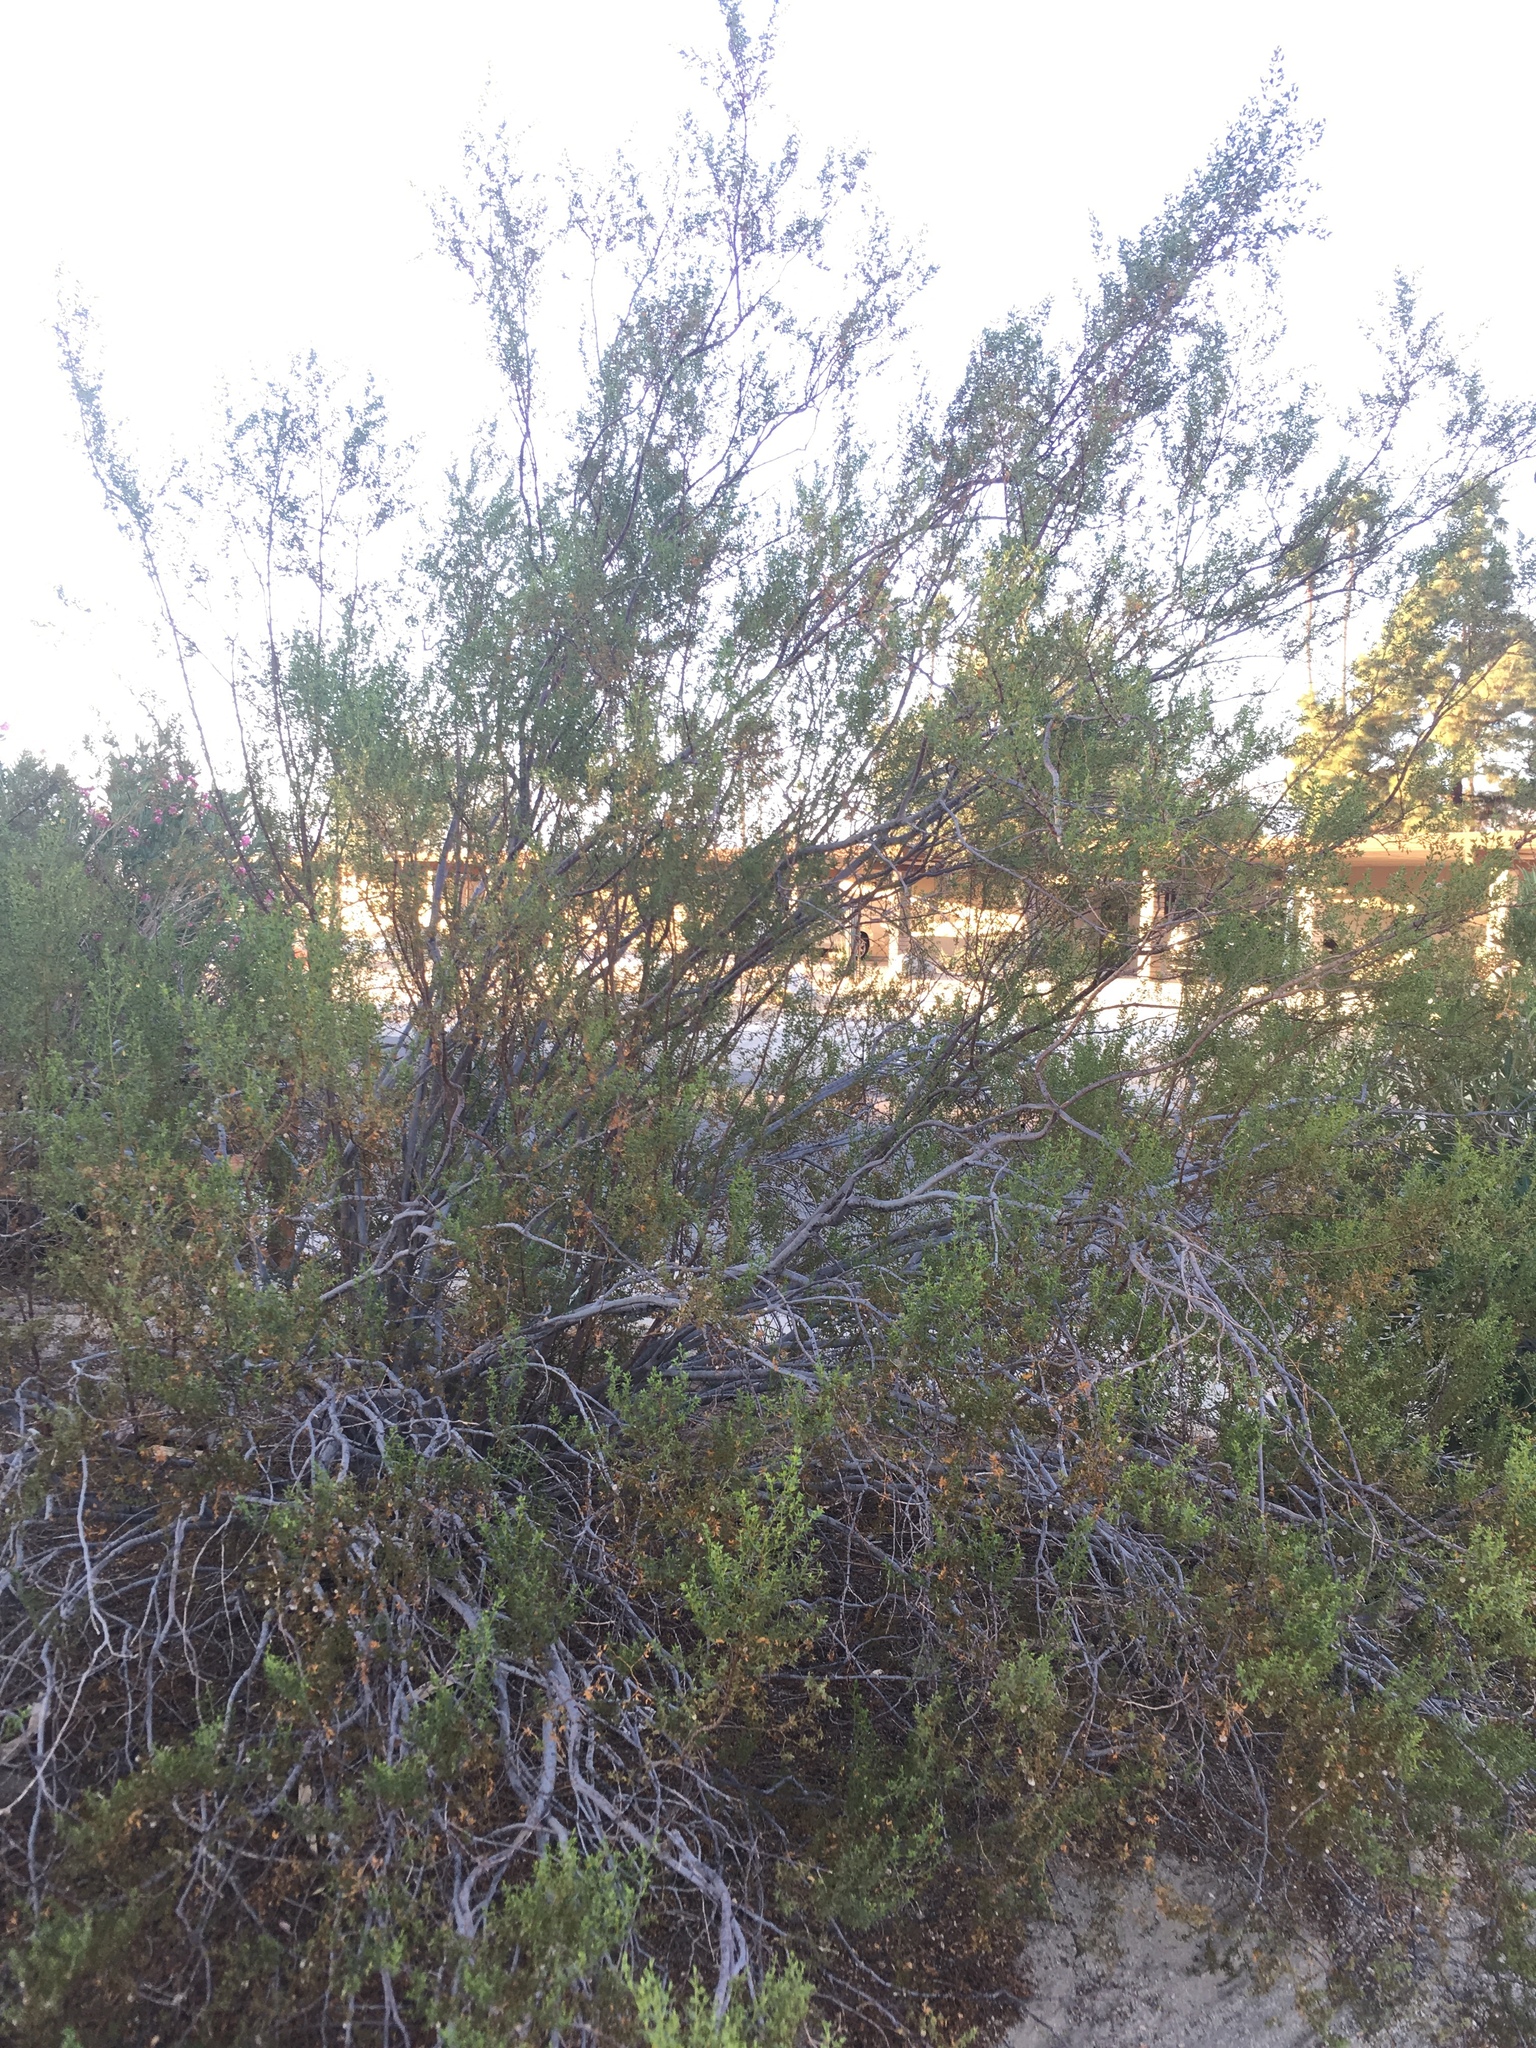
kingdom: Plantae
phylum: Tracheophyta
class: Magnoliopsida
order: Zygophyllales
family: Zygophyllaceae
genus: Larrea
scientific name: Larrea tridentata
